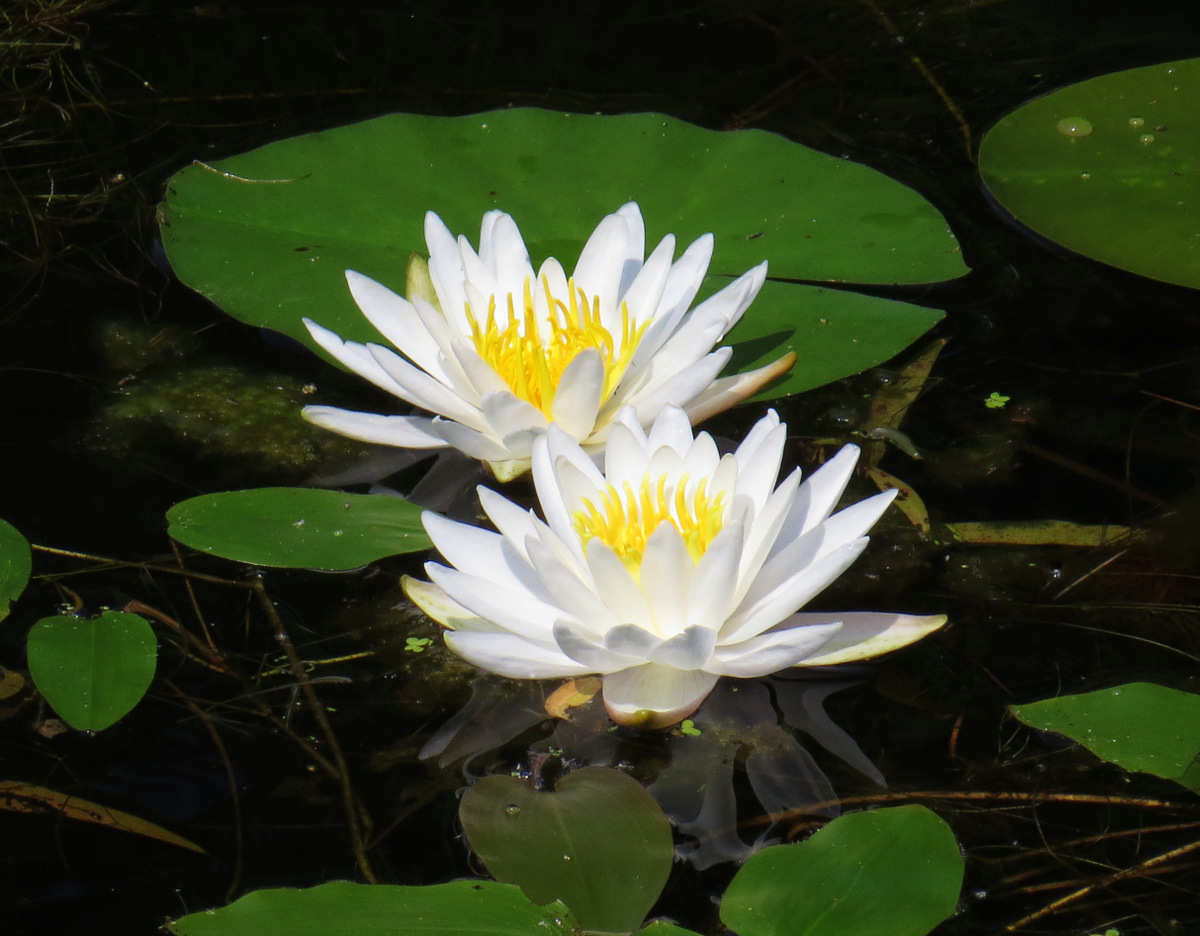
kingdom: Plantae
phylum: Tracheophyta
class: Magnoliopsida
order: Nymphaeales
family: Nymphaeaceae
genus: Nymphaea
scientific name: Nymphaea odorata
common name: Fragrant water-lily
